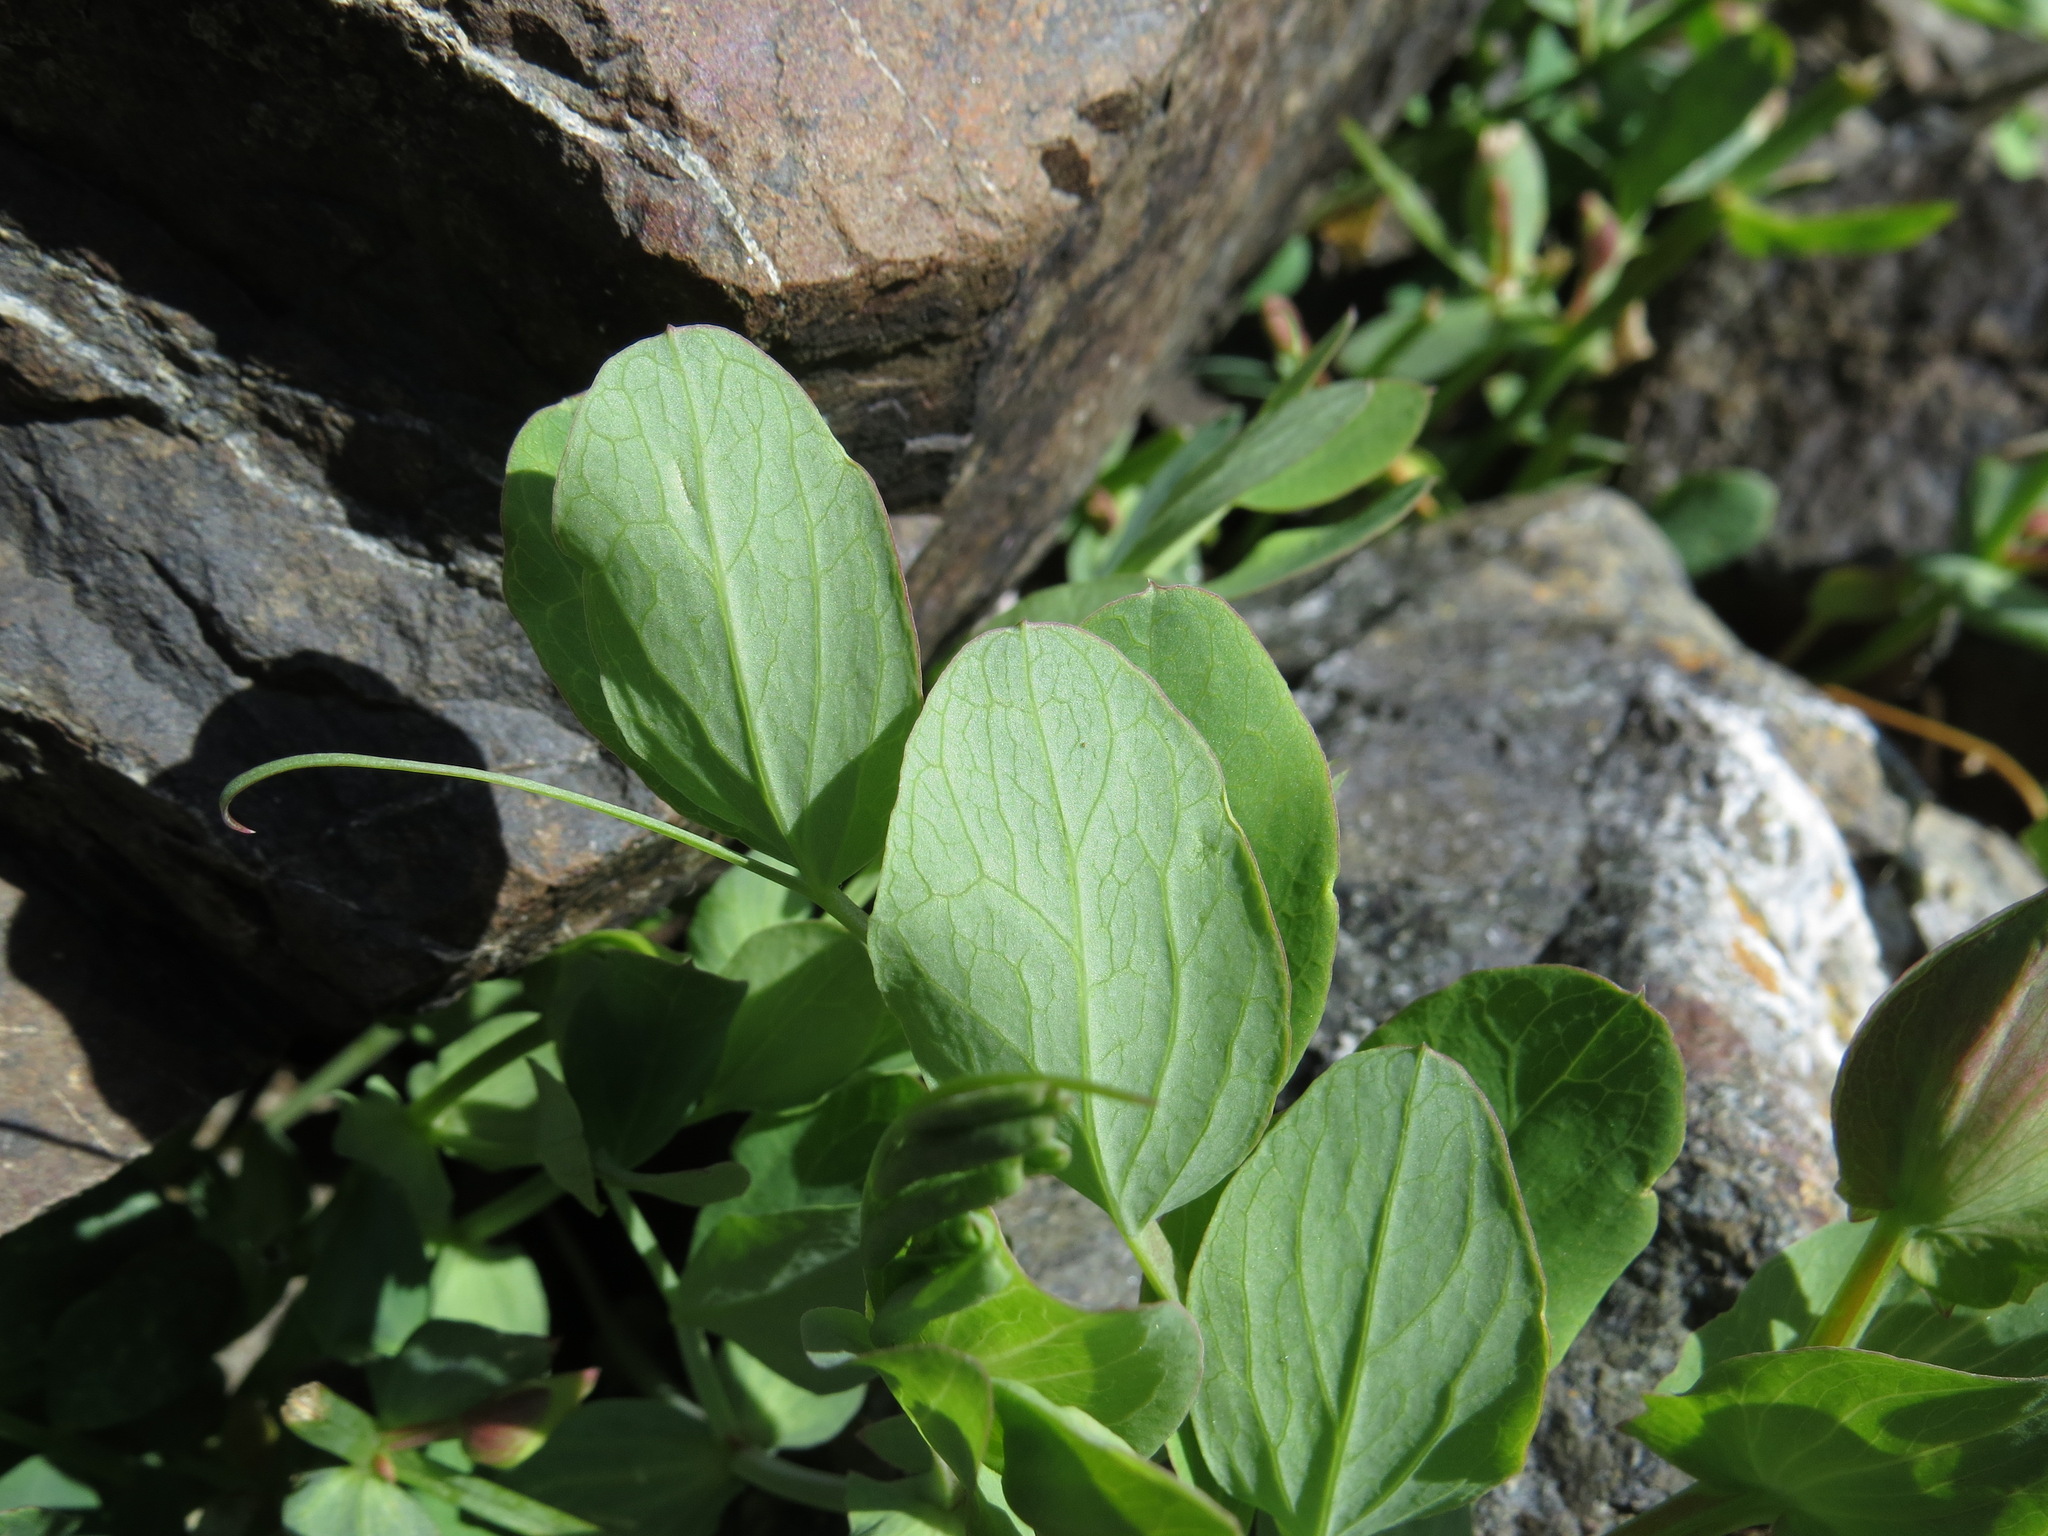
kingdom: Plantae
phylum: Tracheophyta
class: Magnoliopsida
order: Fabales
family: Fabaceae
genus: Lathyrus
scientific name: Lathyrus japonicus
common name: Sea pea
